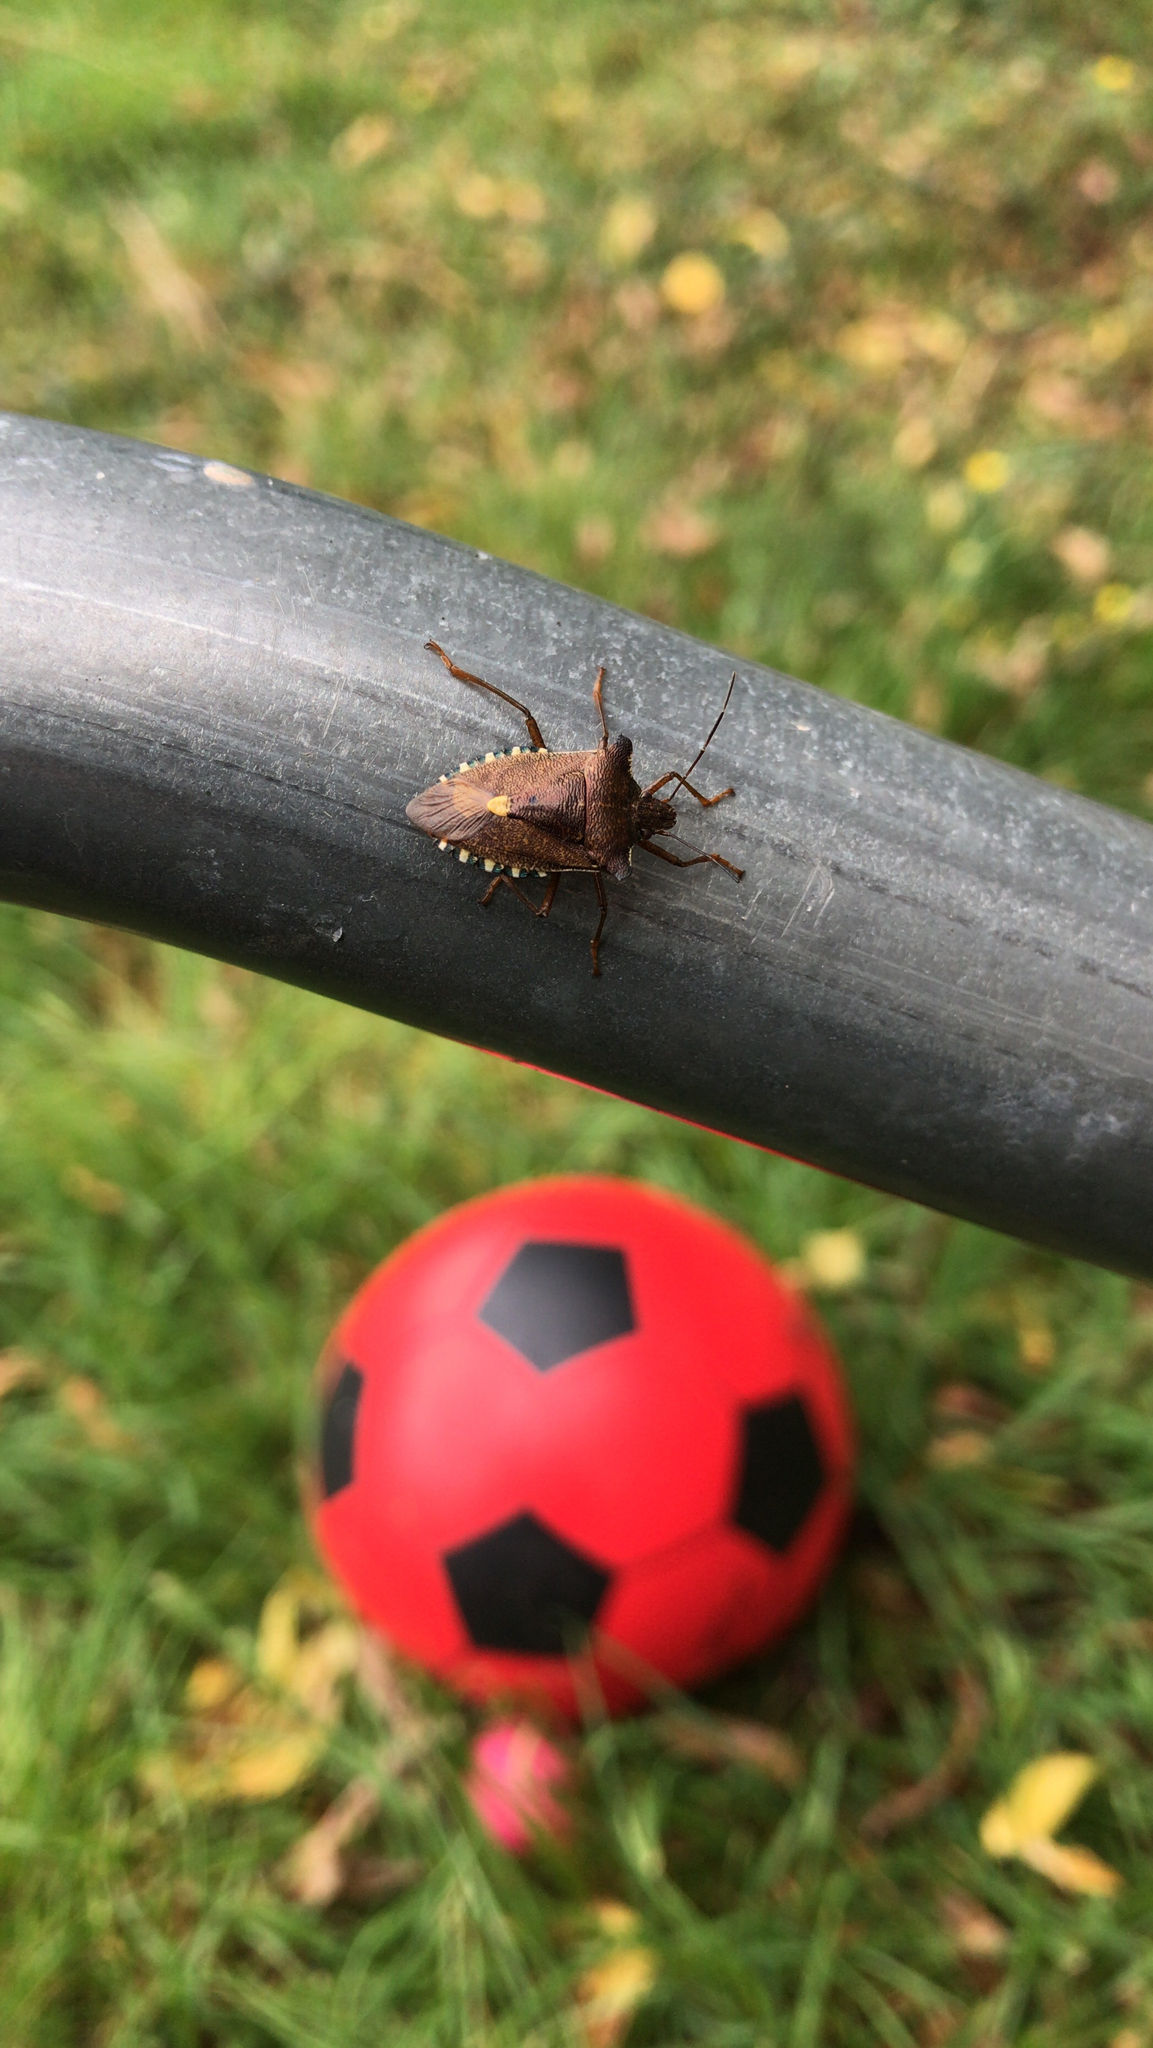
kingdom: Animalia
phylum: Arthropoda
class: Insecta
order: Hemiptera
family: Pentatomidae
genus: Pentatoma
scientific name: Pentatoma rufipes
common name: Forest bug
